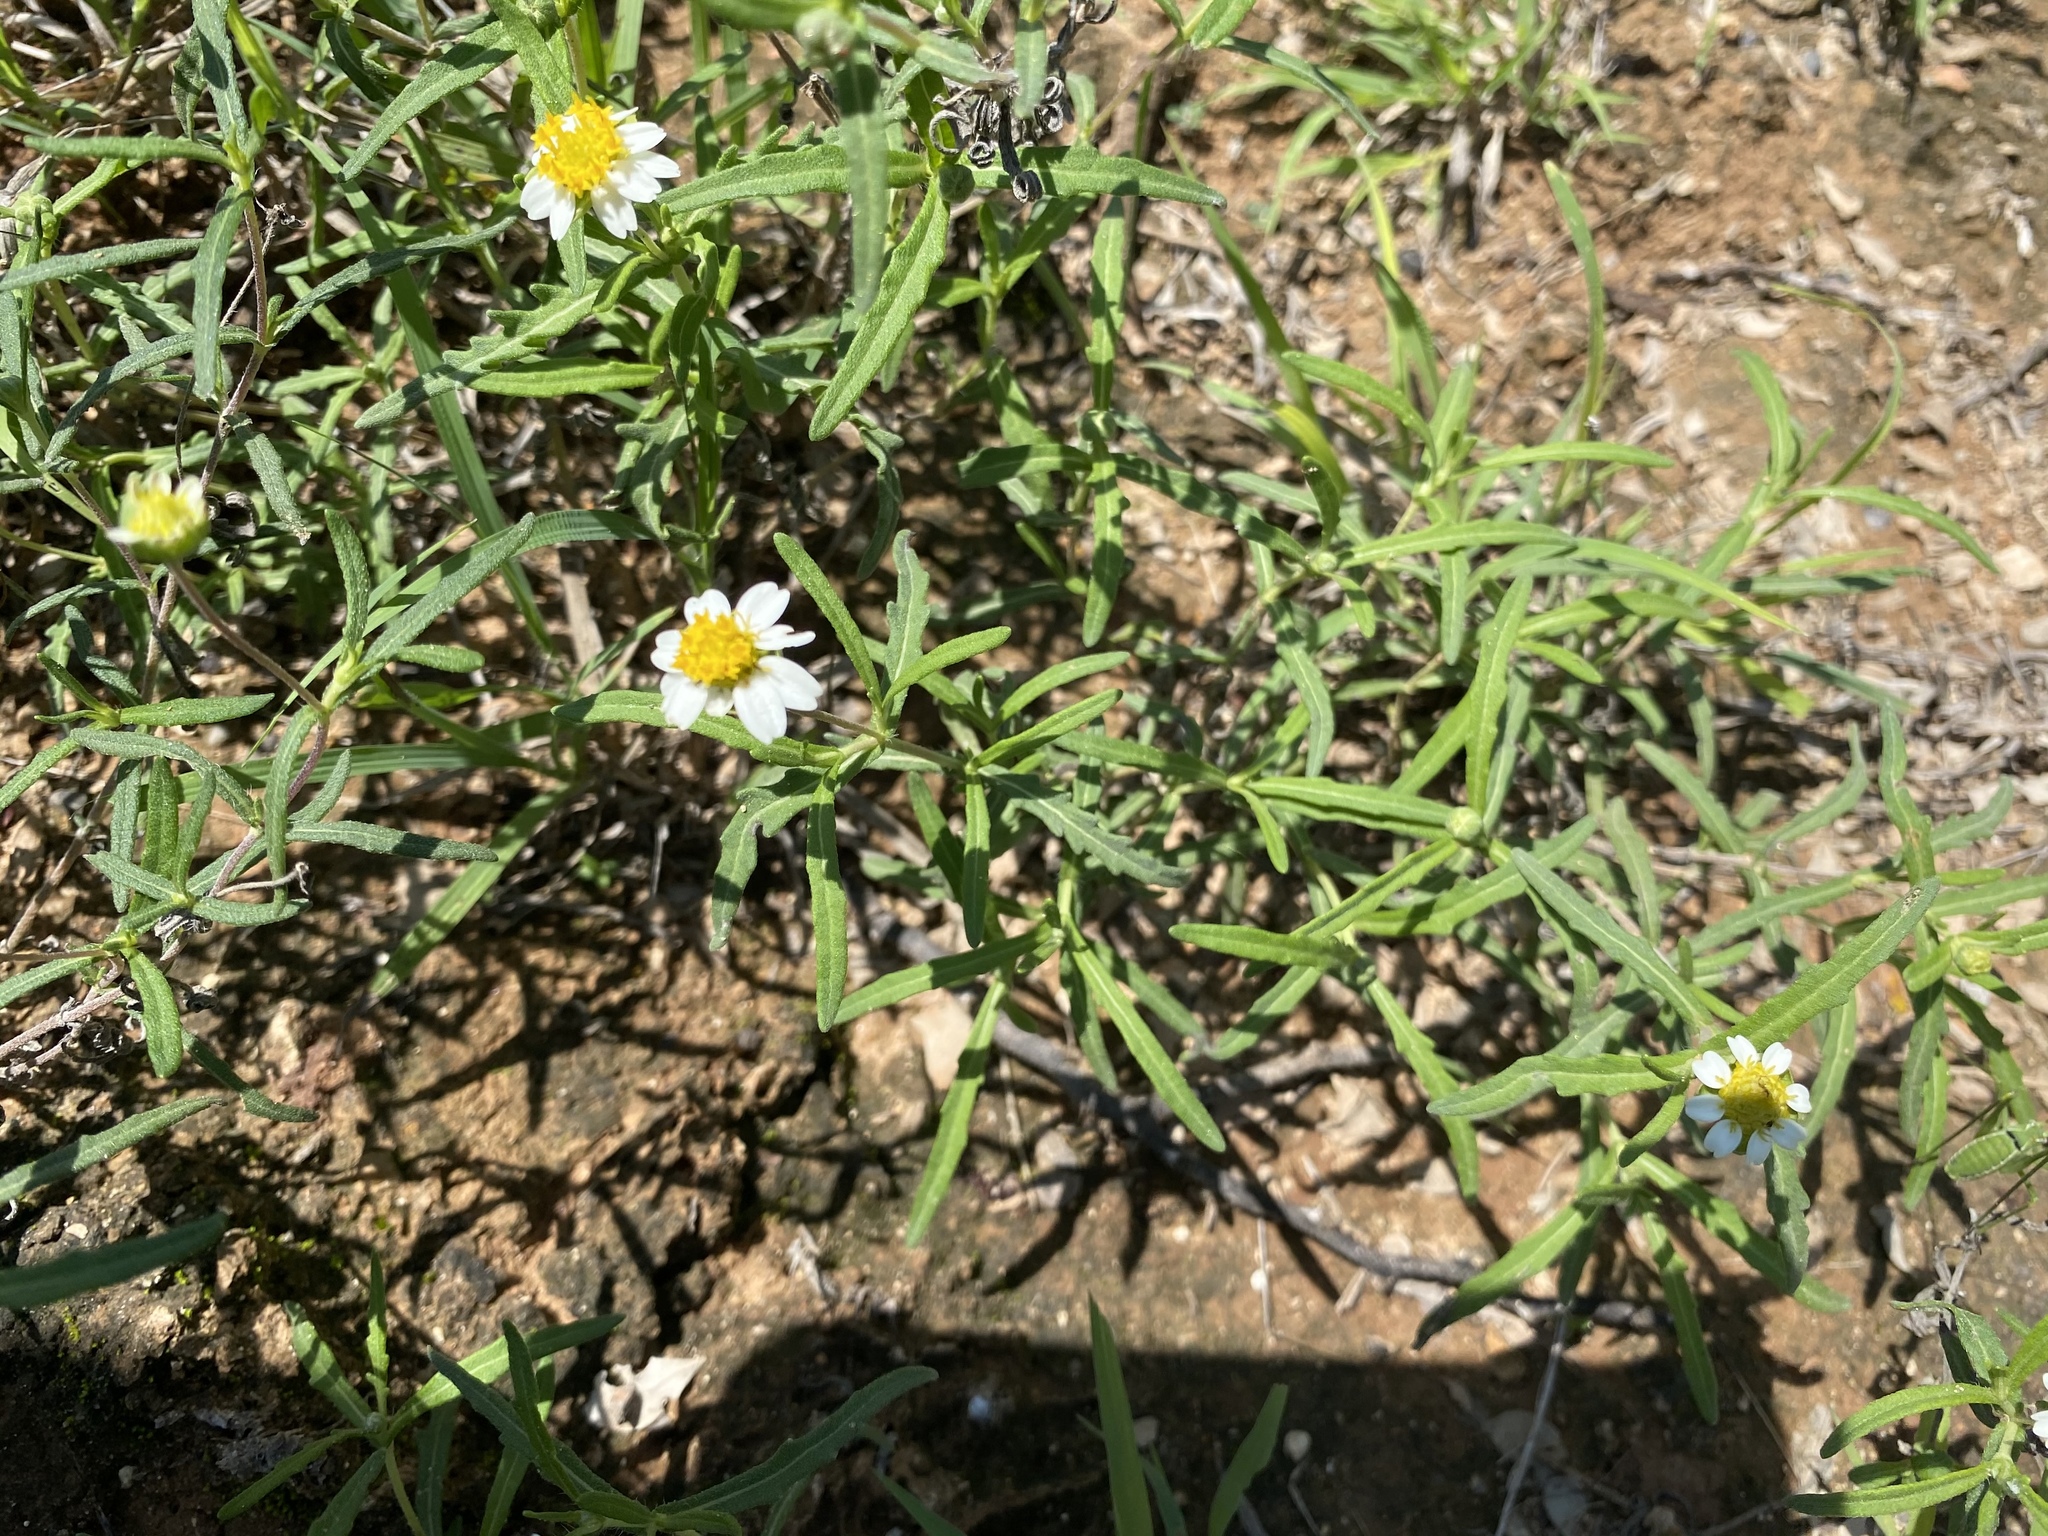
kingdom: Plantae
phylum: Tracheophyta
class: Magnoliopsida
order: Asterales
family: Asteraceae
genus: Melampodium
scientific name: Melampodium cinereum
